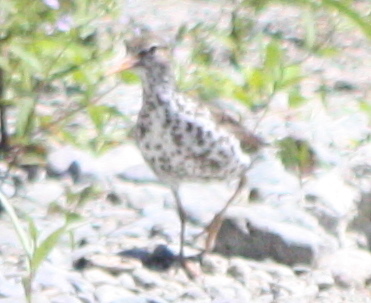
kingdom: Animalia
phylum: Chordata
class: Aves
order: Charadriiformes
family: Scolopacidae
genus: Actitis
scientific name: Actitis macularius
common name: Spotted sandpiper
